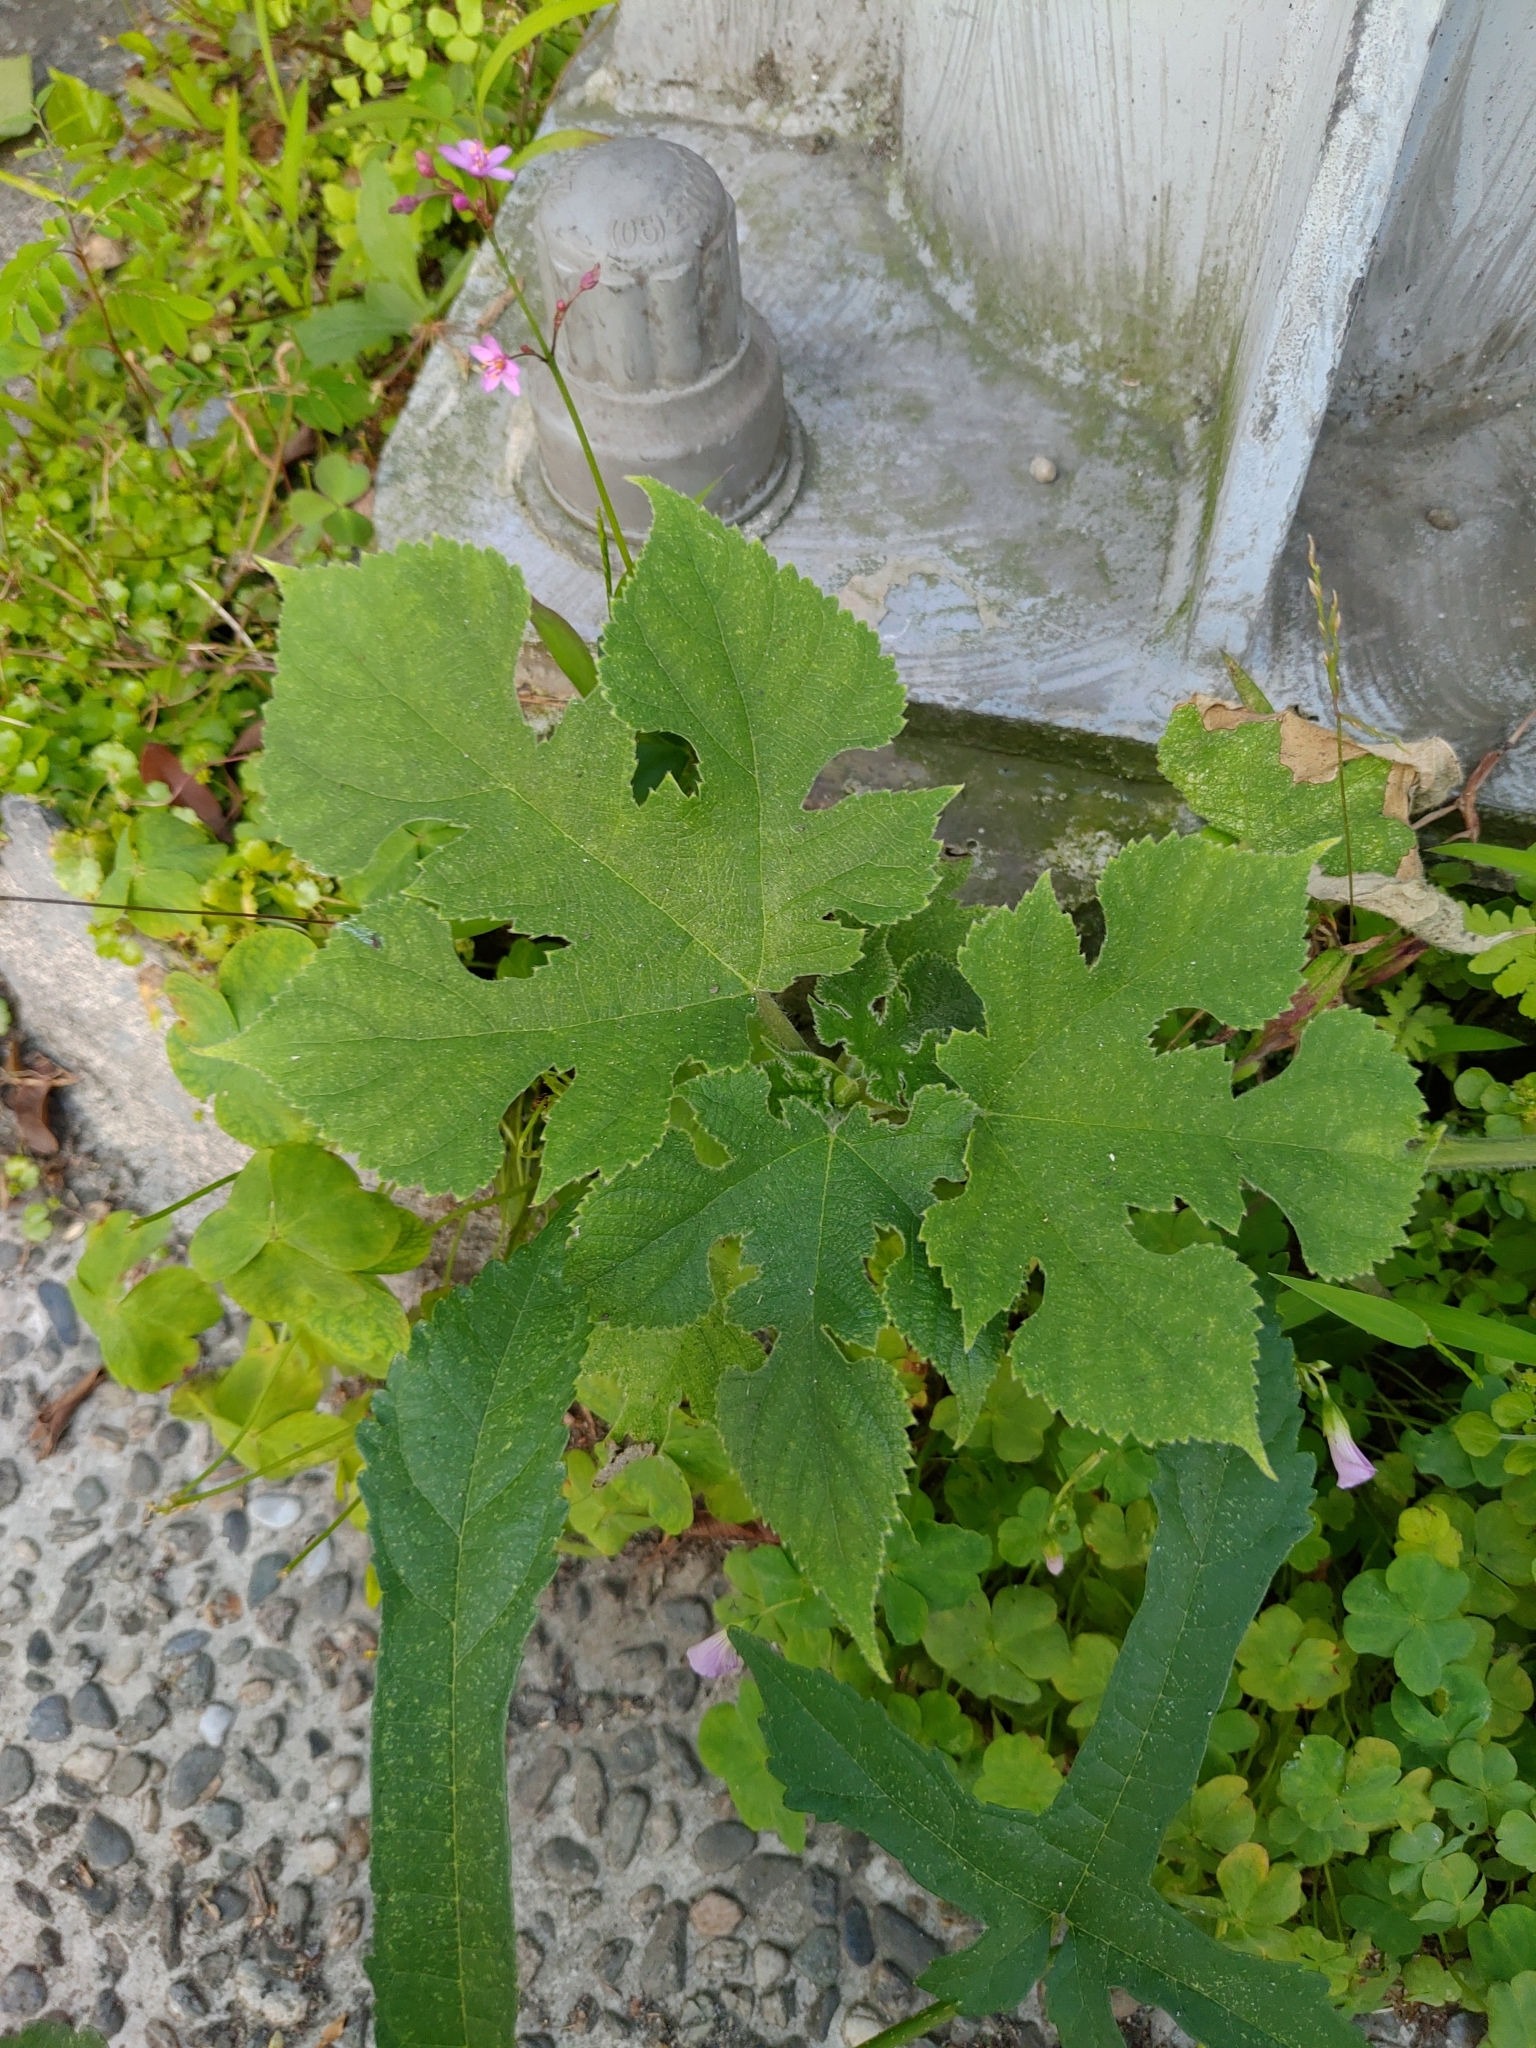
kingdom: Plantae
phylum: Tracheophyta
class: Magnoliopsida
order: Rosales
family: Moraceae
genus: Broussonetia
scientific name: Broussonetia papyrifera
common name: Paper mulberry
